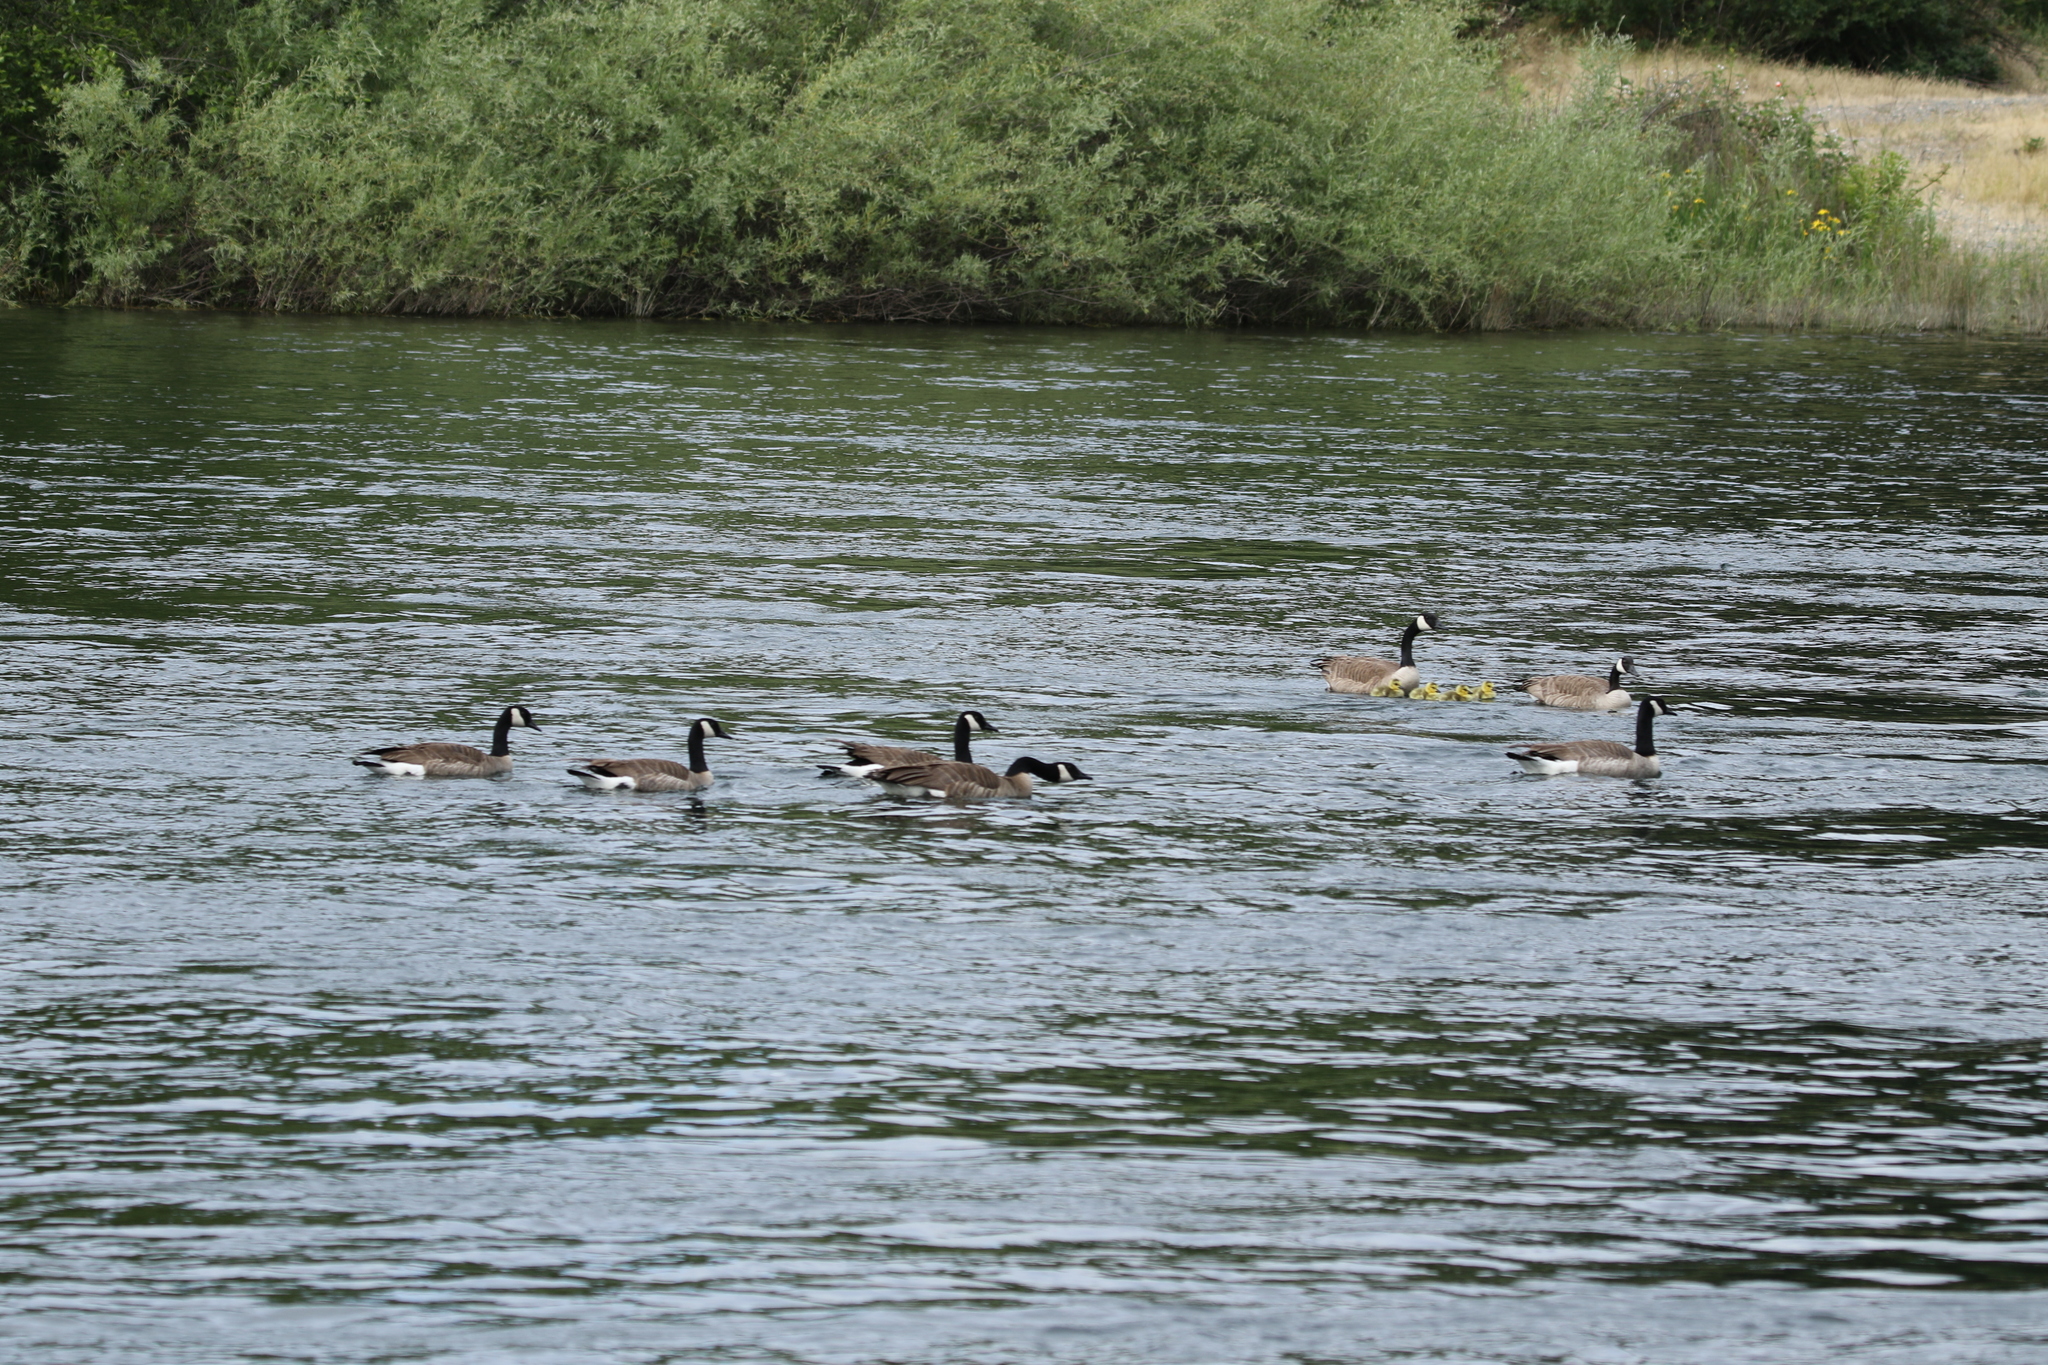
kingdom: Animalia
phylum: Chordata
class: Aves
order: Anseriformes
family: Anatidae
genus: Branta
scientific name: Branta canadensis
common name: Canada goose
